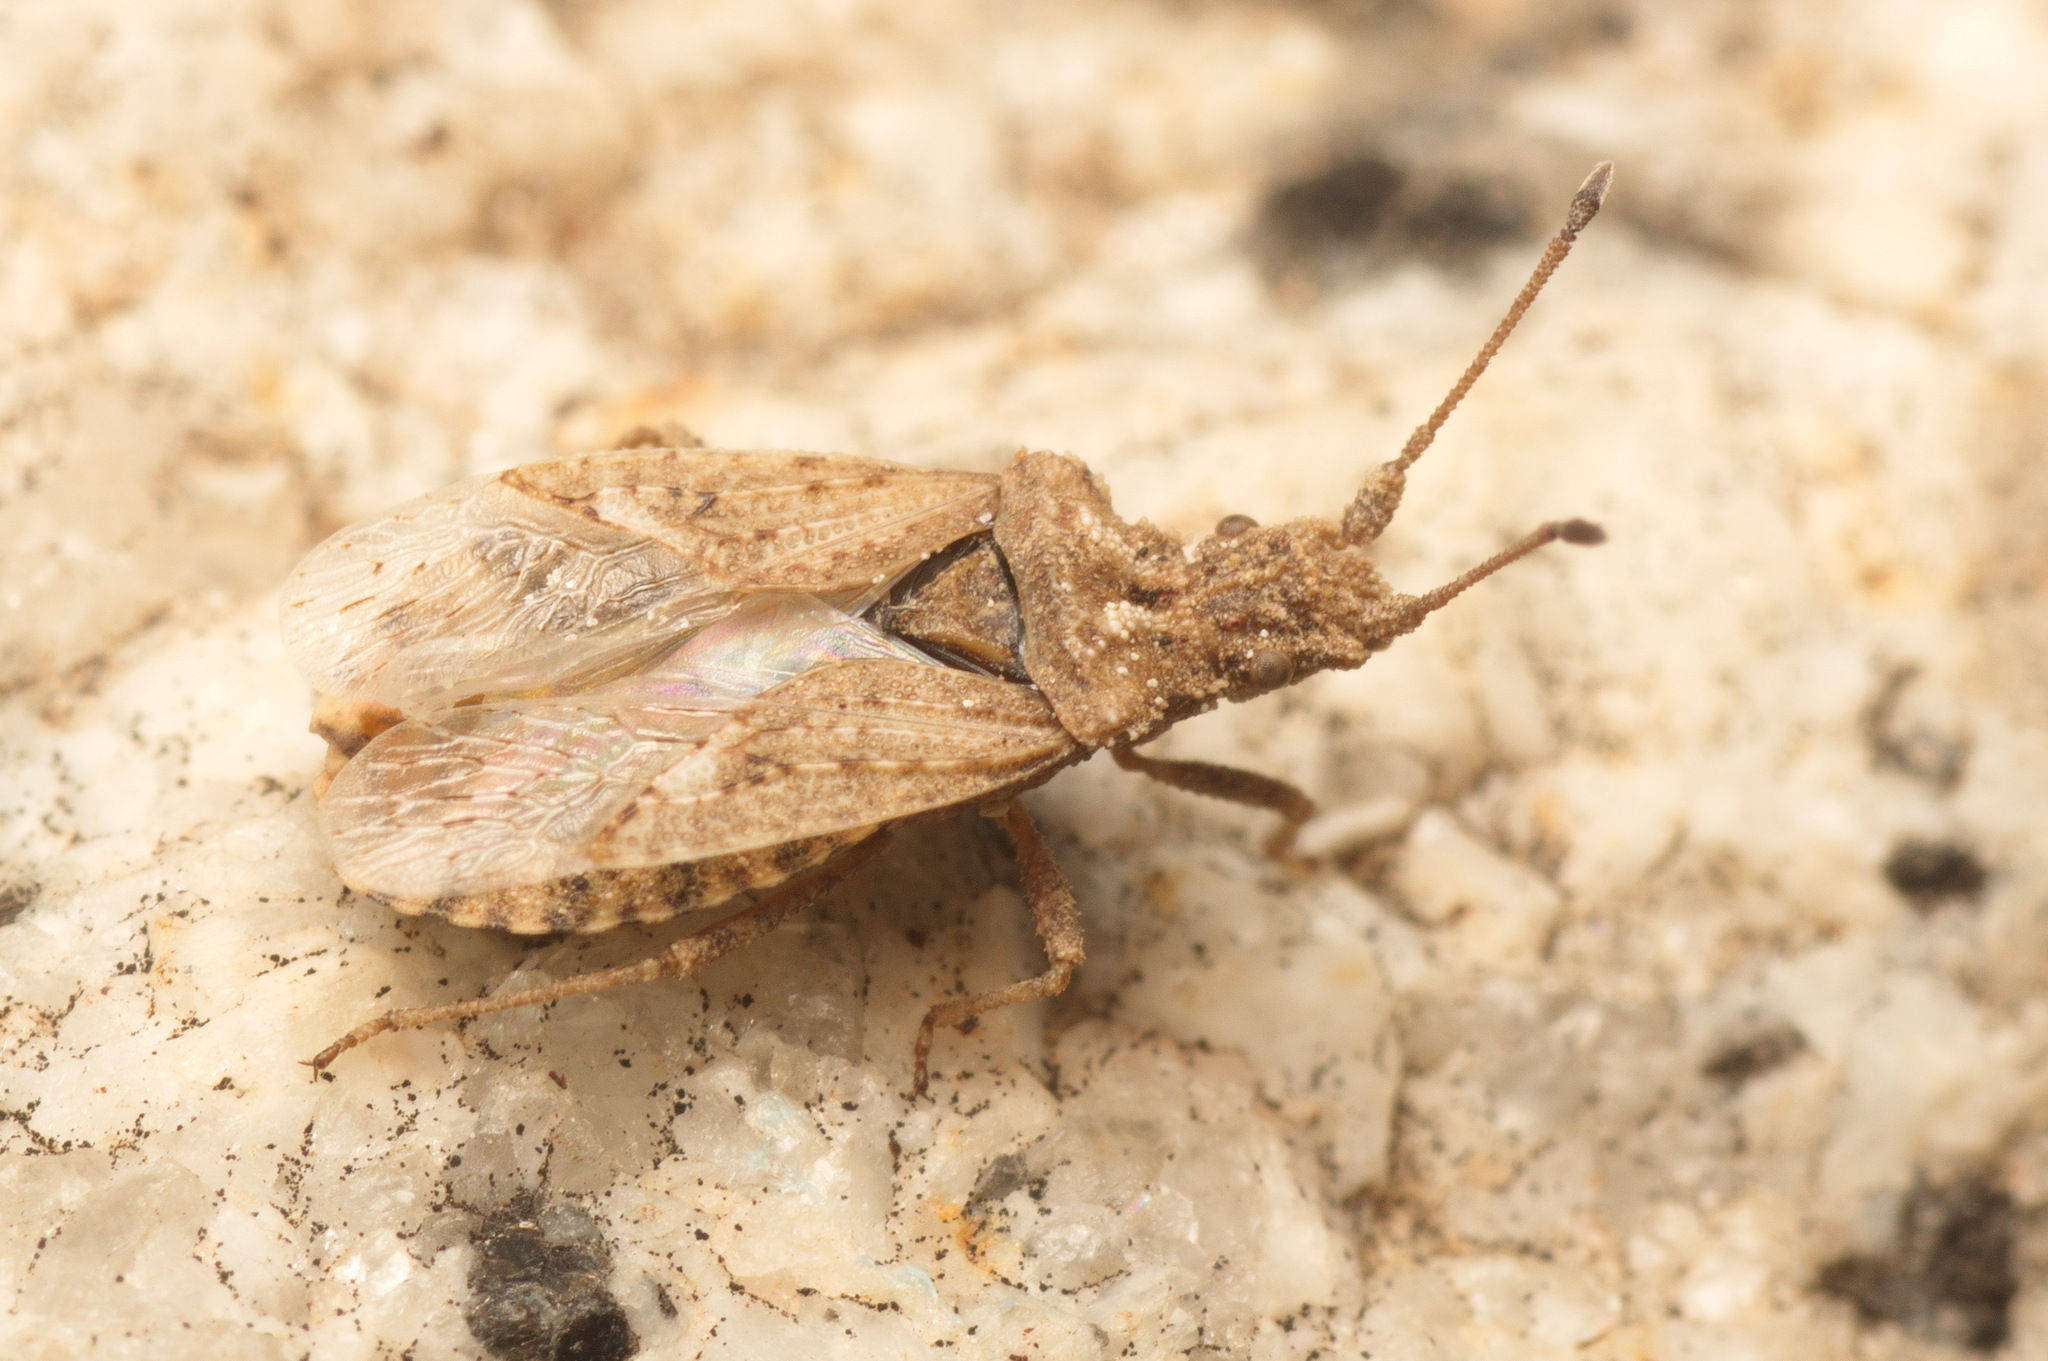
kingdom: Animalia
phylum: Arthropoda
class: Insecta
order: Hemiptera
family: Coreidae
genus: Arenocoris
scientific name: Arenocoris fallenii
